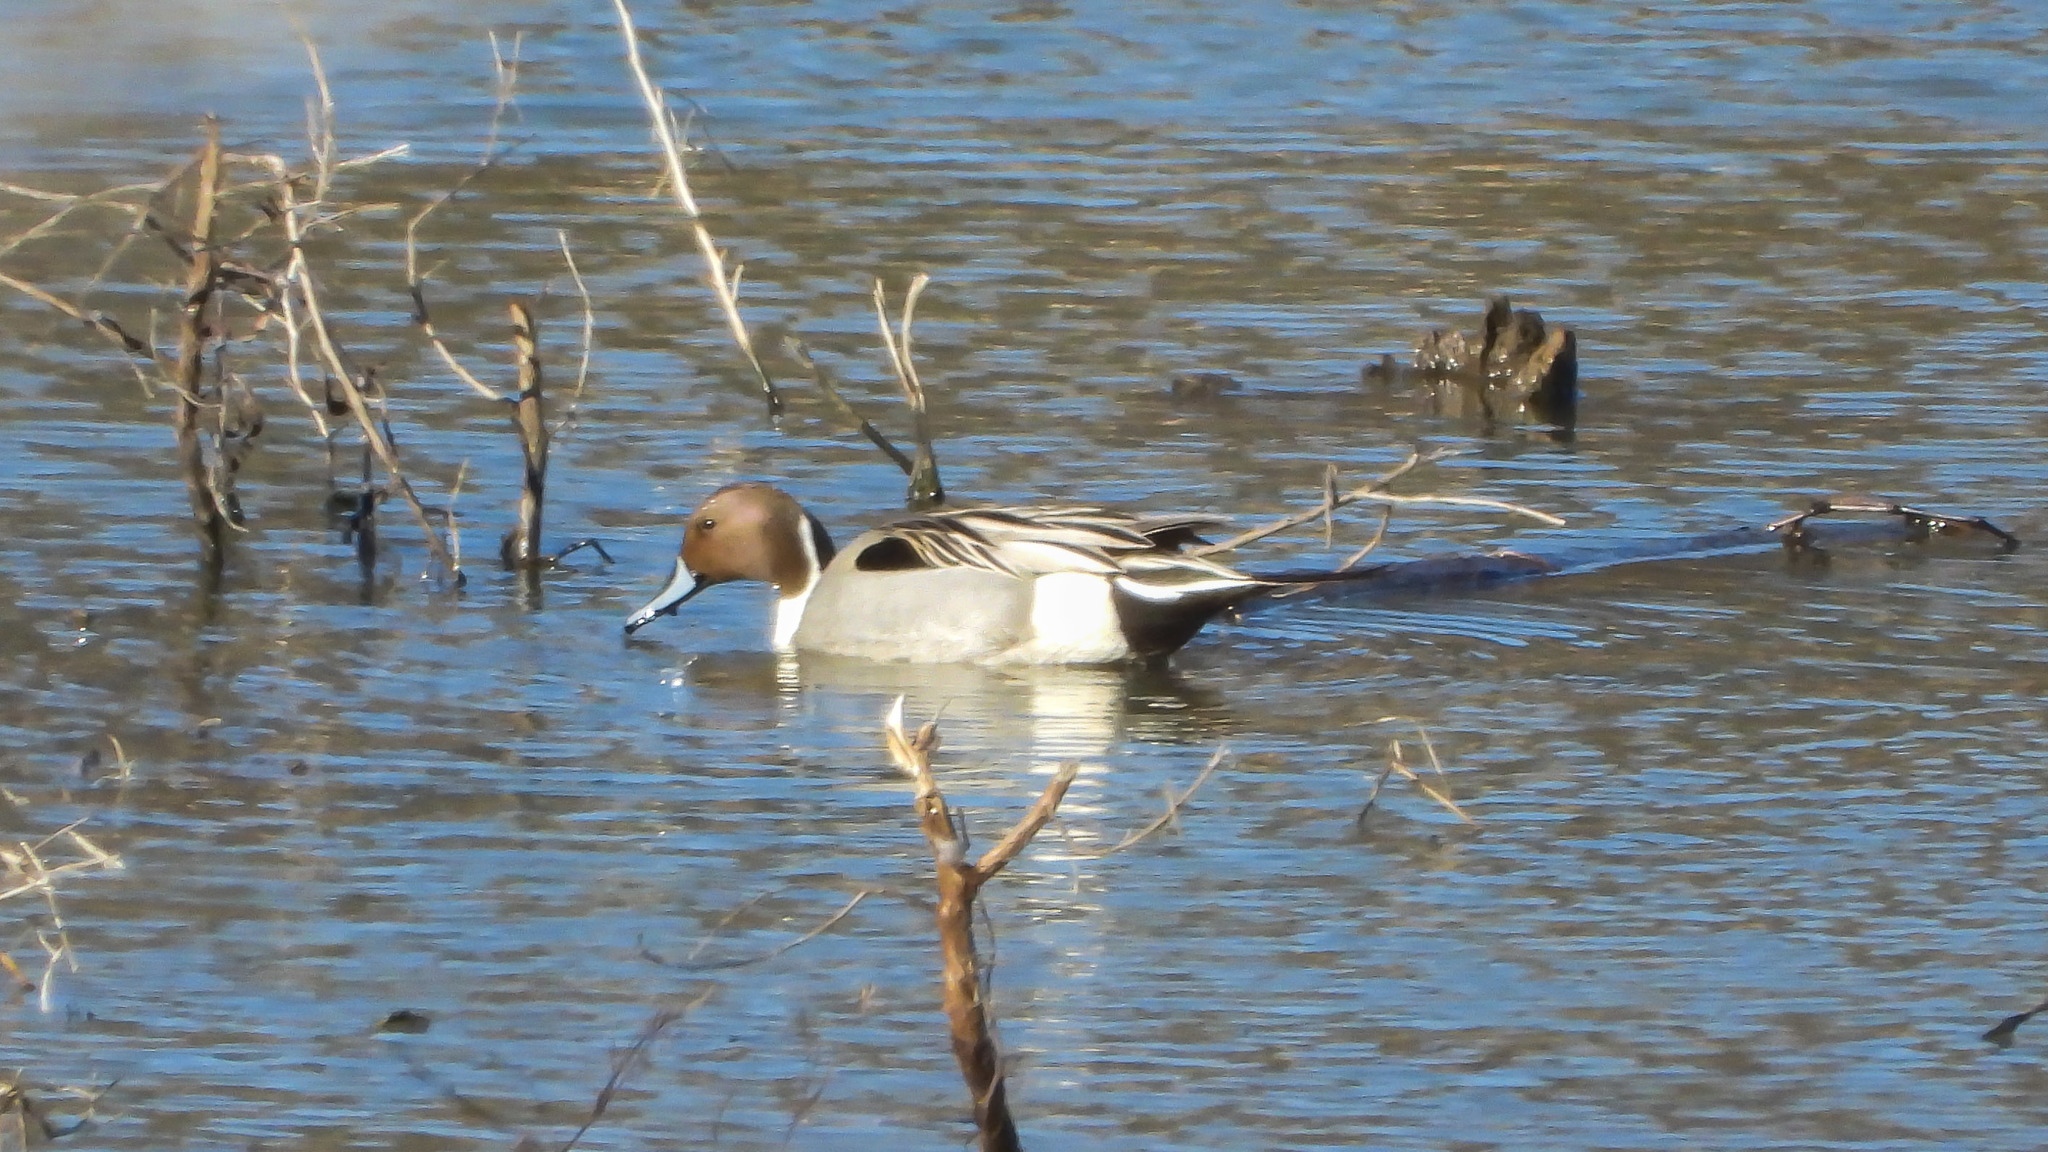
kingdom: Animalia
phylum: Chordata
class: Aves
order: Anseriformes
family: Anatidae
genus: Anas
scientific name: Anas acuta
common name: Northern pintail
